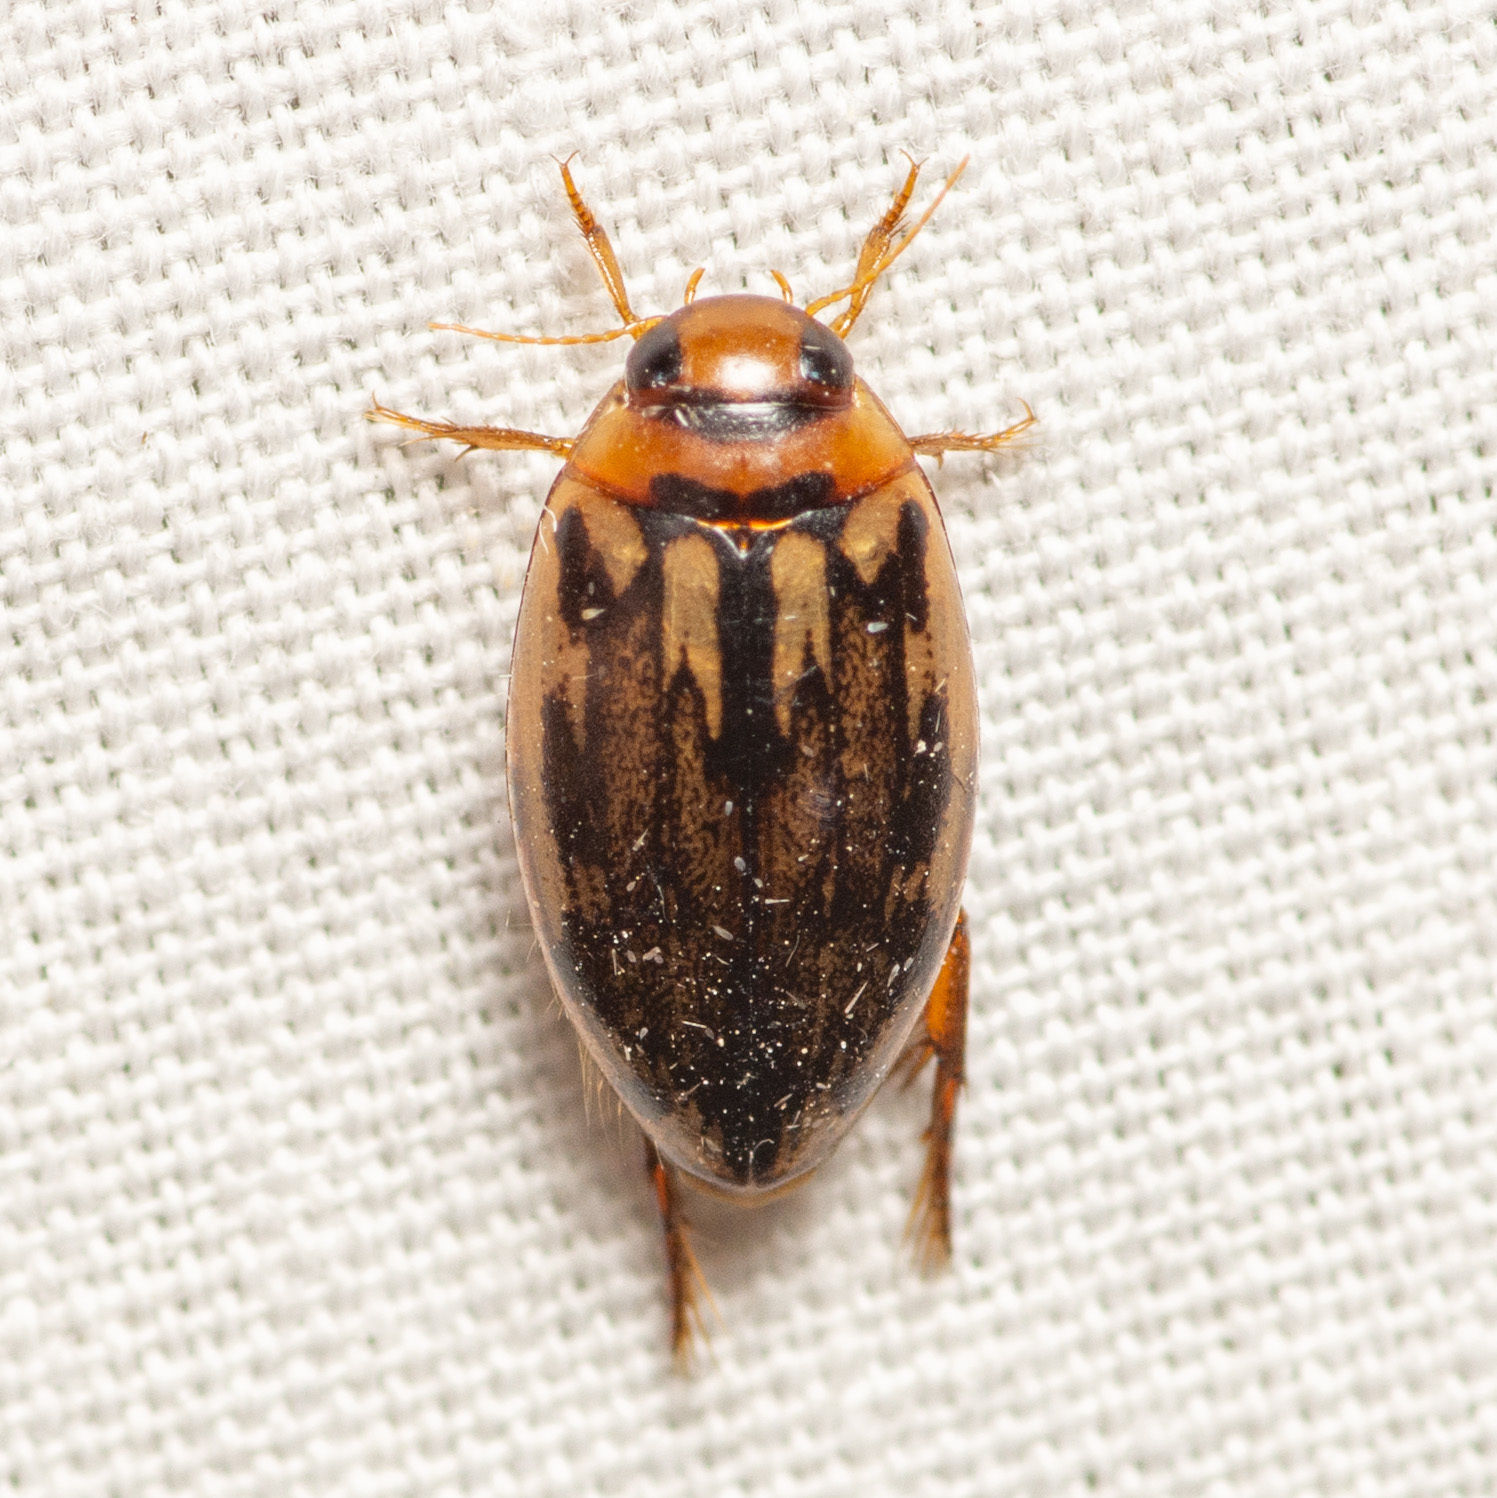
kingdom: Animalia
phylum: Arthropoda
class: Insecta
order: Coleoptera
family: Dytiscidae
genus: Coptotomus
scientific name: Coptotomus
